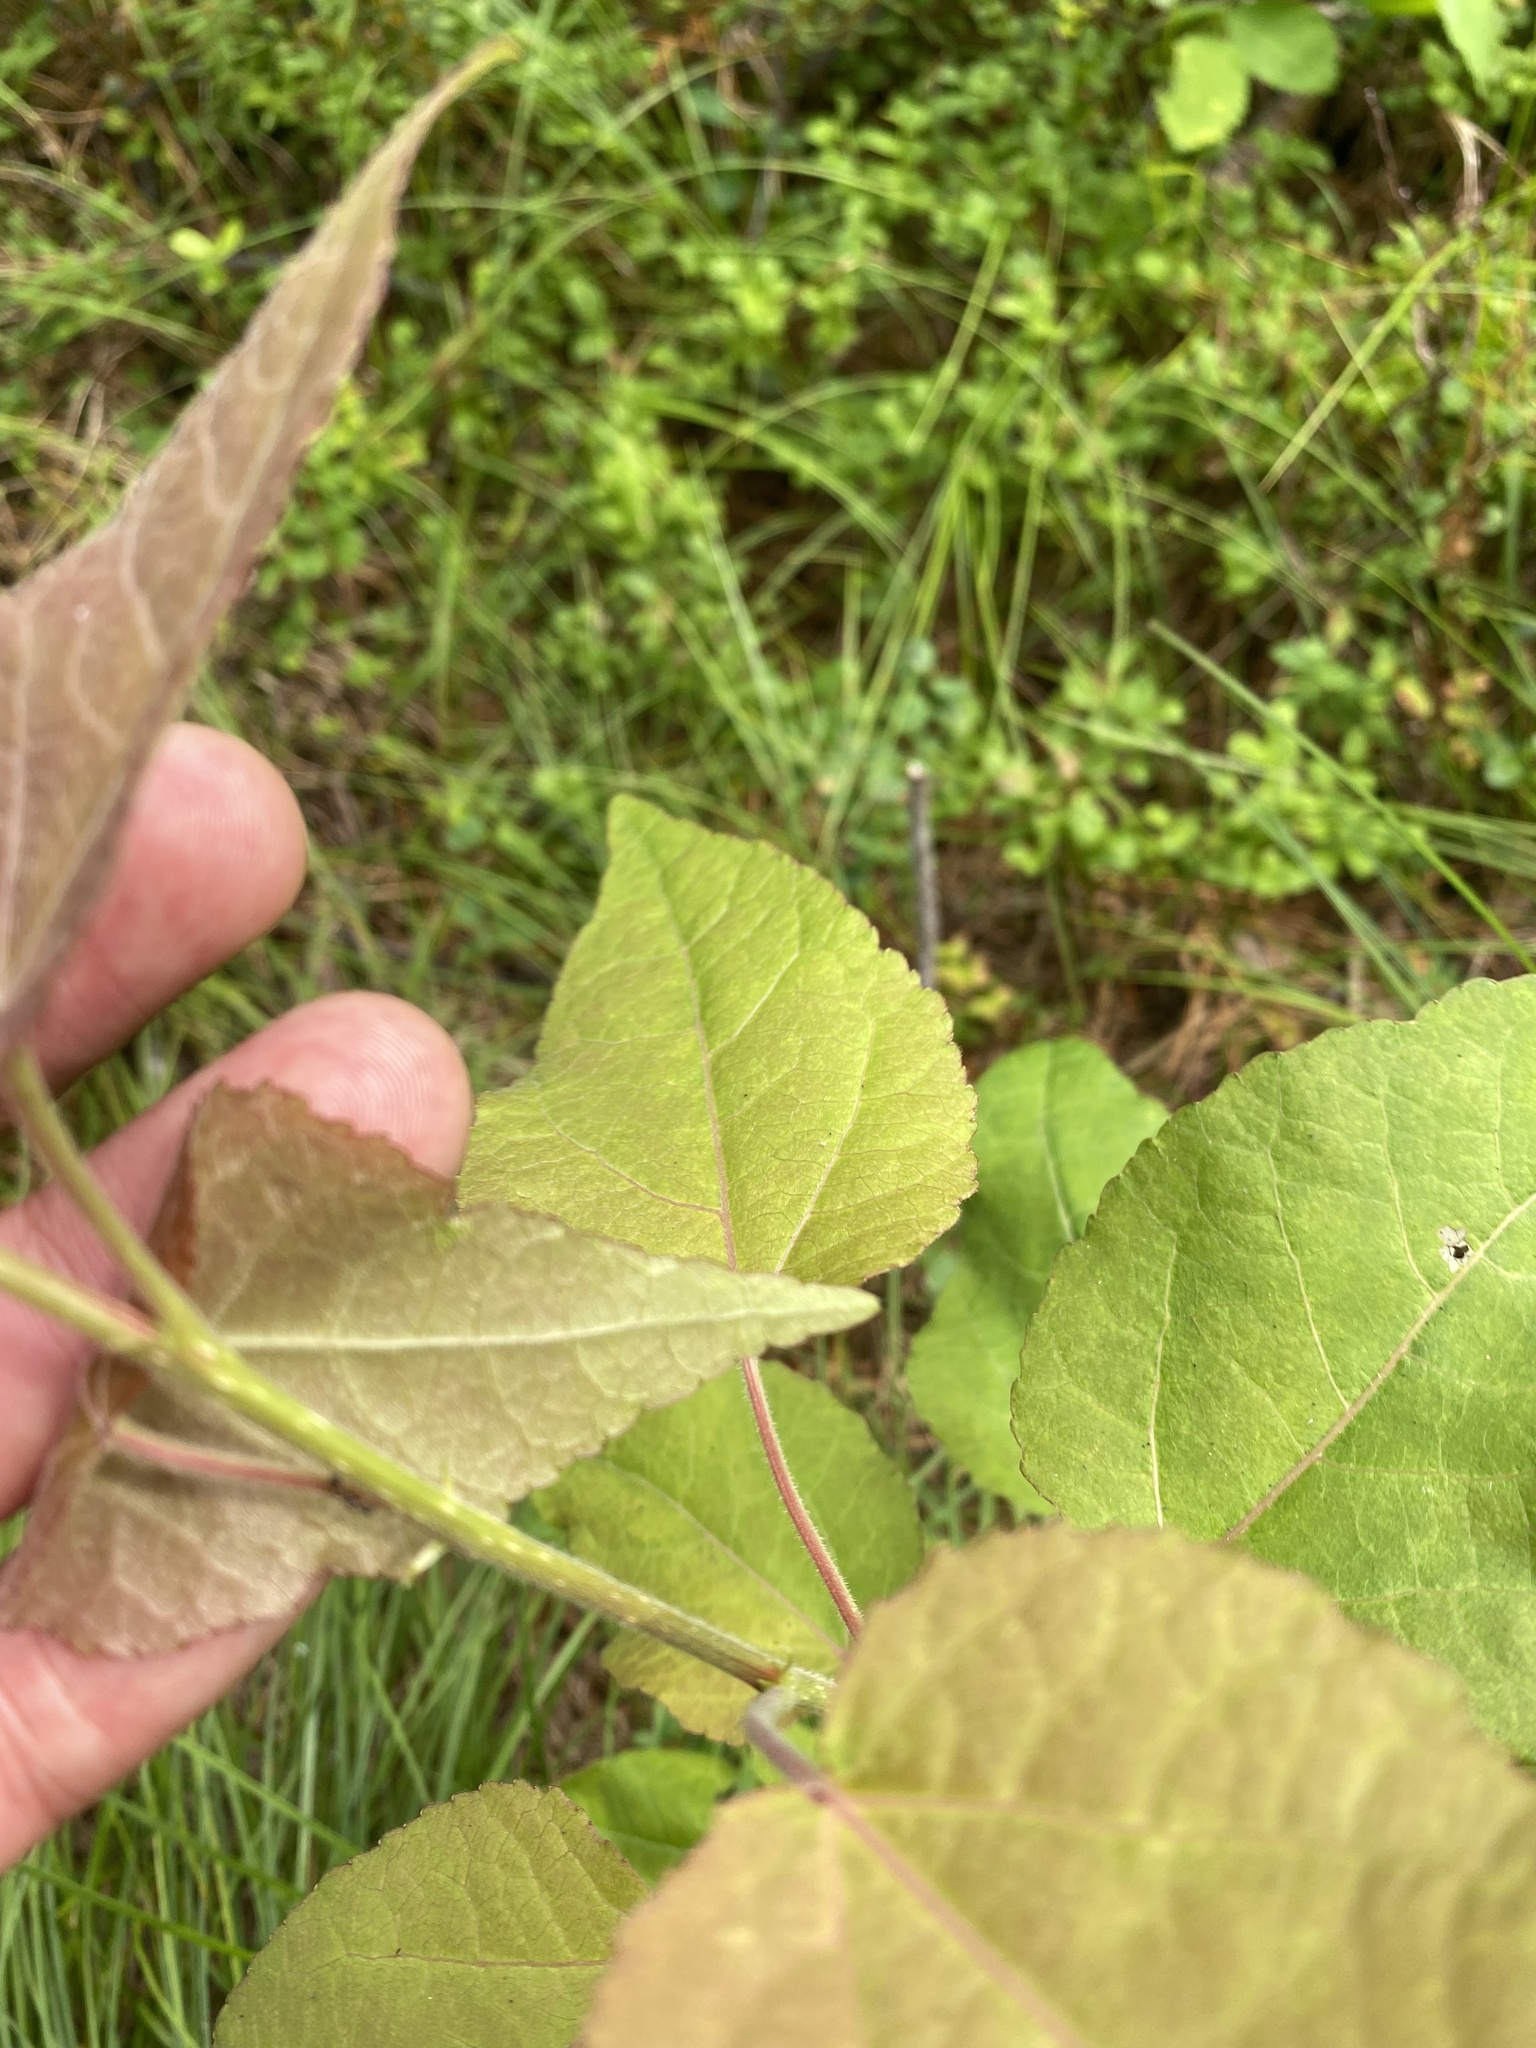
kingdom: Plantae
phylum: Tracheophyta
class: Magnoliopsida
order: Malpighiales
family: Salicaceae
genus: Populus
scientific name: Populus tremula
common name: European aspen
